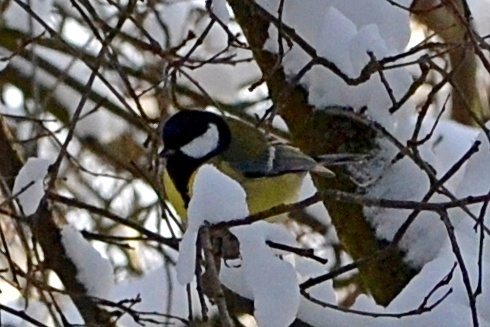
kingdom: Animalia
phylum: Chordata
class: Aves
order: Passeriformes
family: Paridae
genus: Parus
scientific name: Parus major
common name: Great tit
